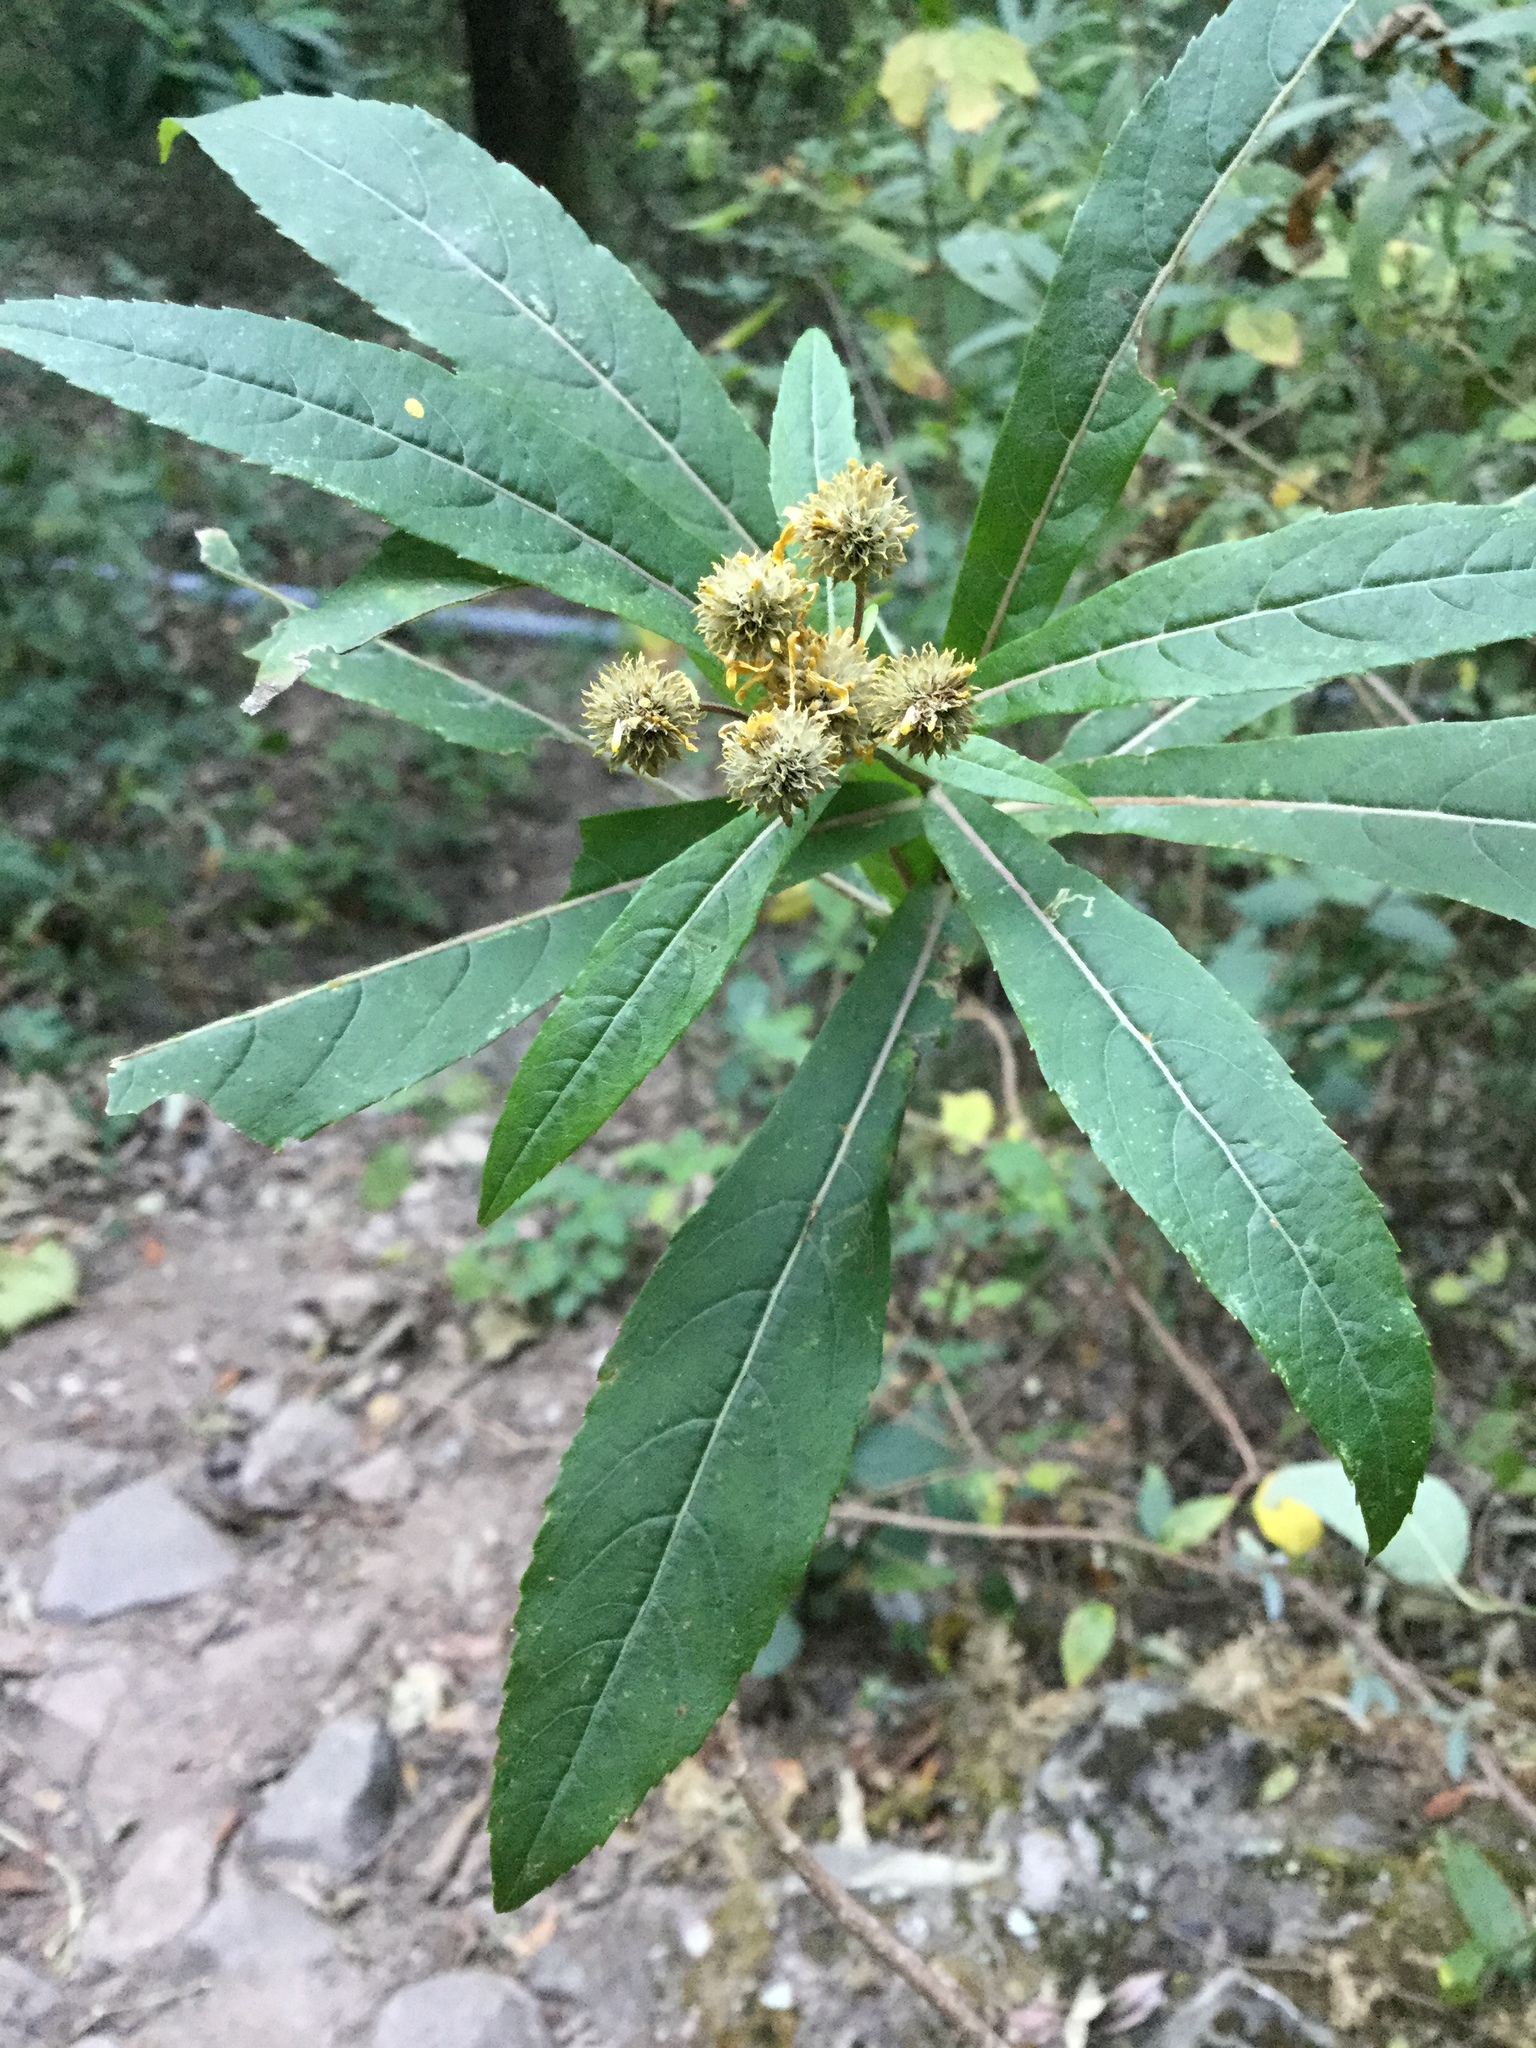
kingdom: Plantae
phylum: Tracheophyta
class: Magnoliopsida
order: Asterales
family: Asteraceae
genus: Verbesina
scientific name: Verbesina oncophora
